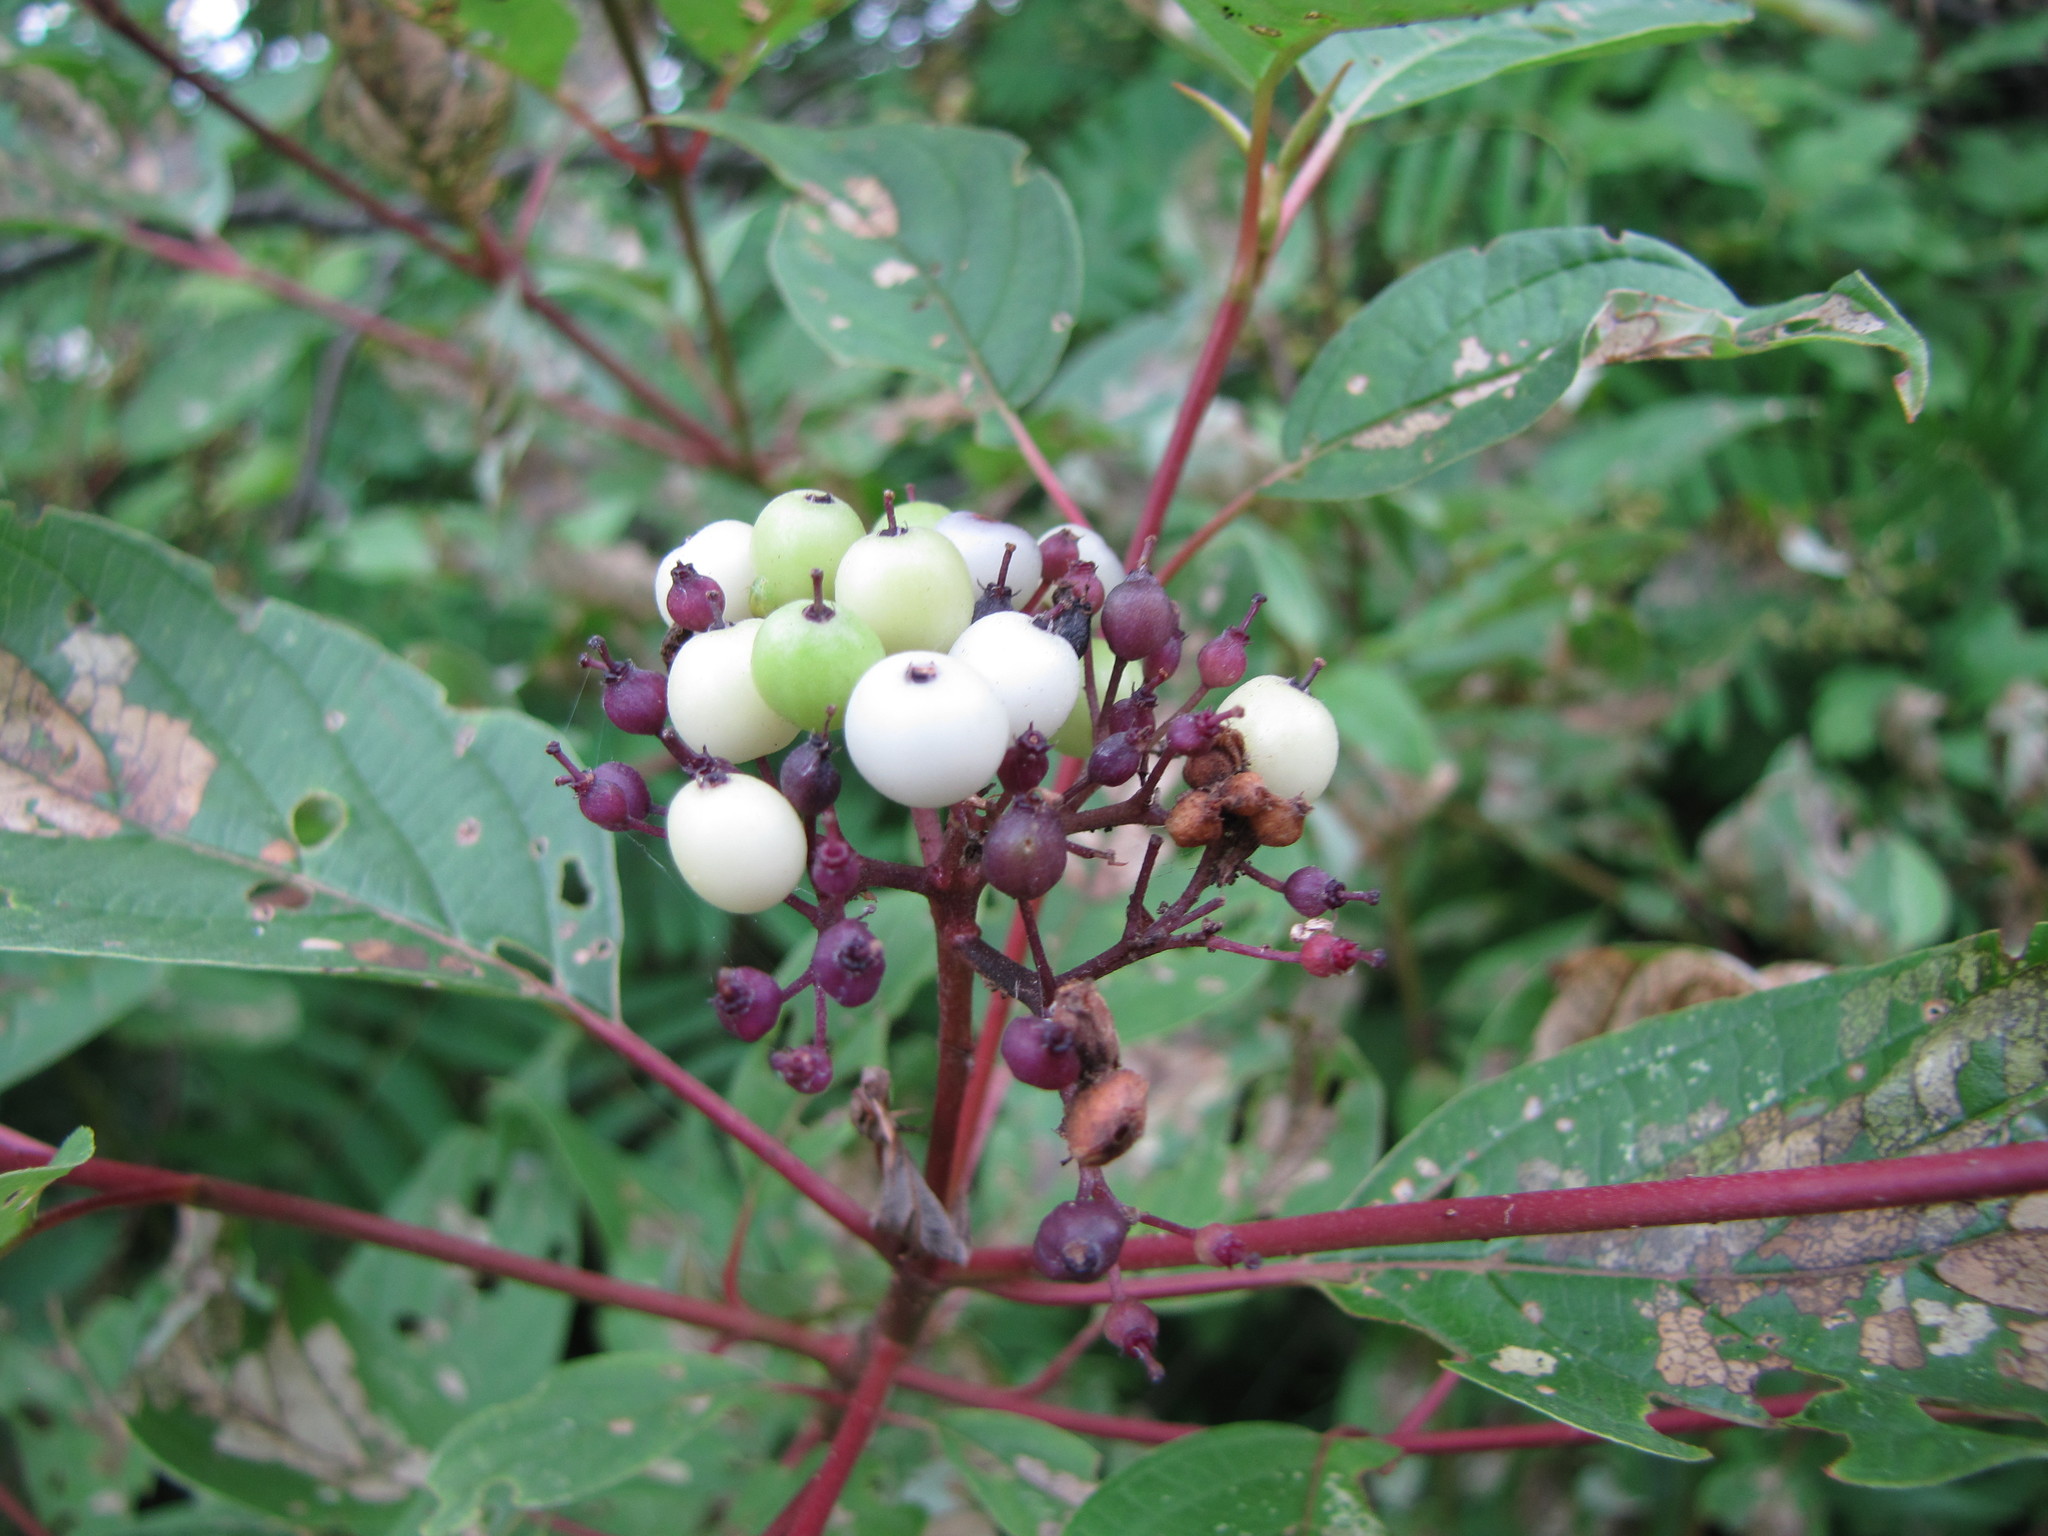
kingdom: Plantae
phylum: Tracheophyta
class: Magnoliopsida
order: Cornales
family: Cornaceae
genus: Cornus
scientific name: Cornus sericea
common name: Red-osier dogwood
